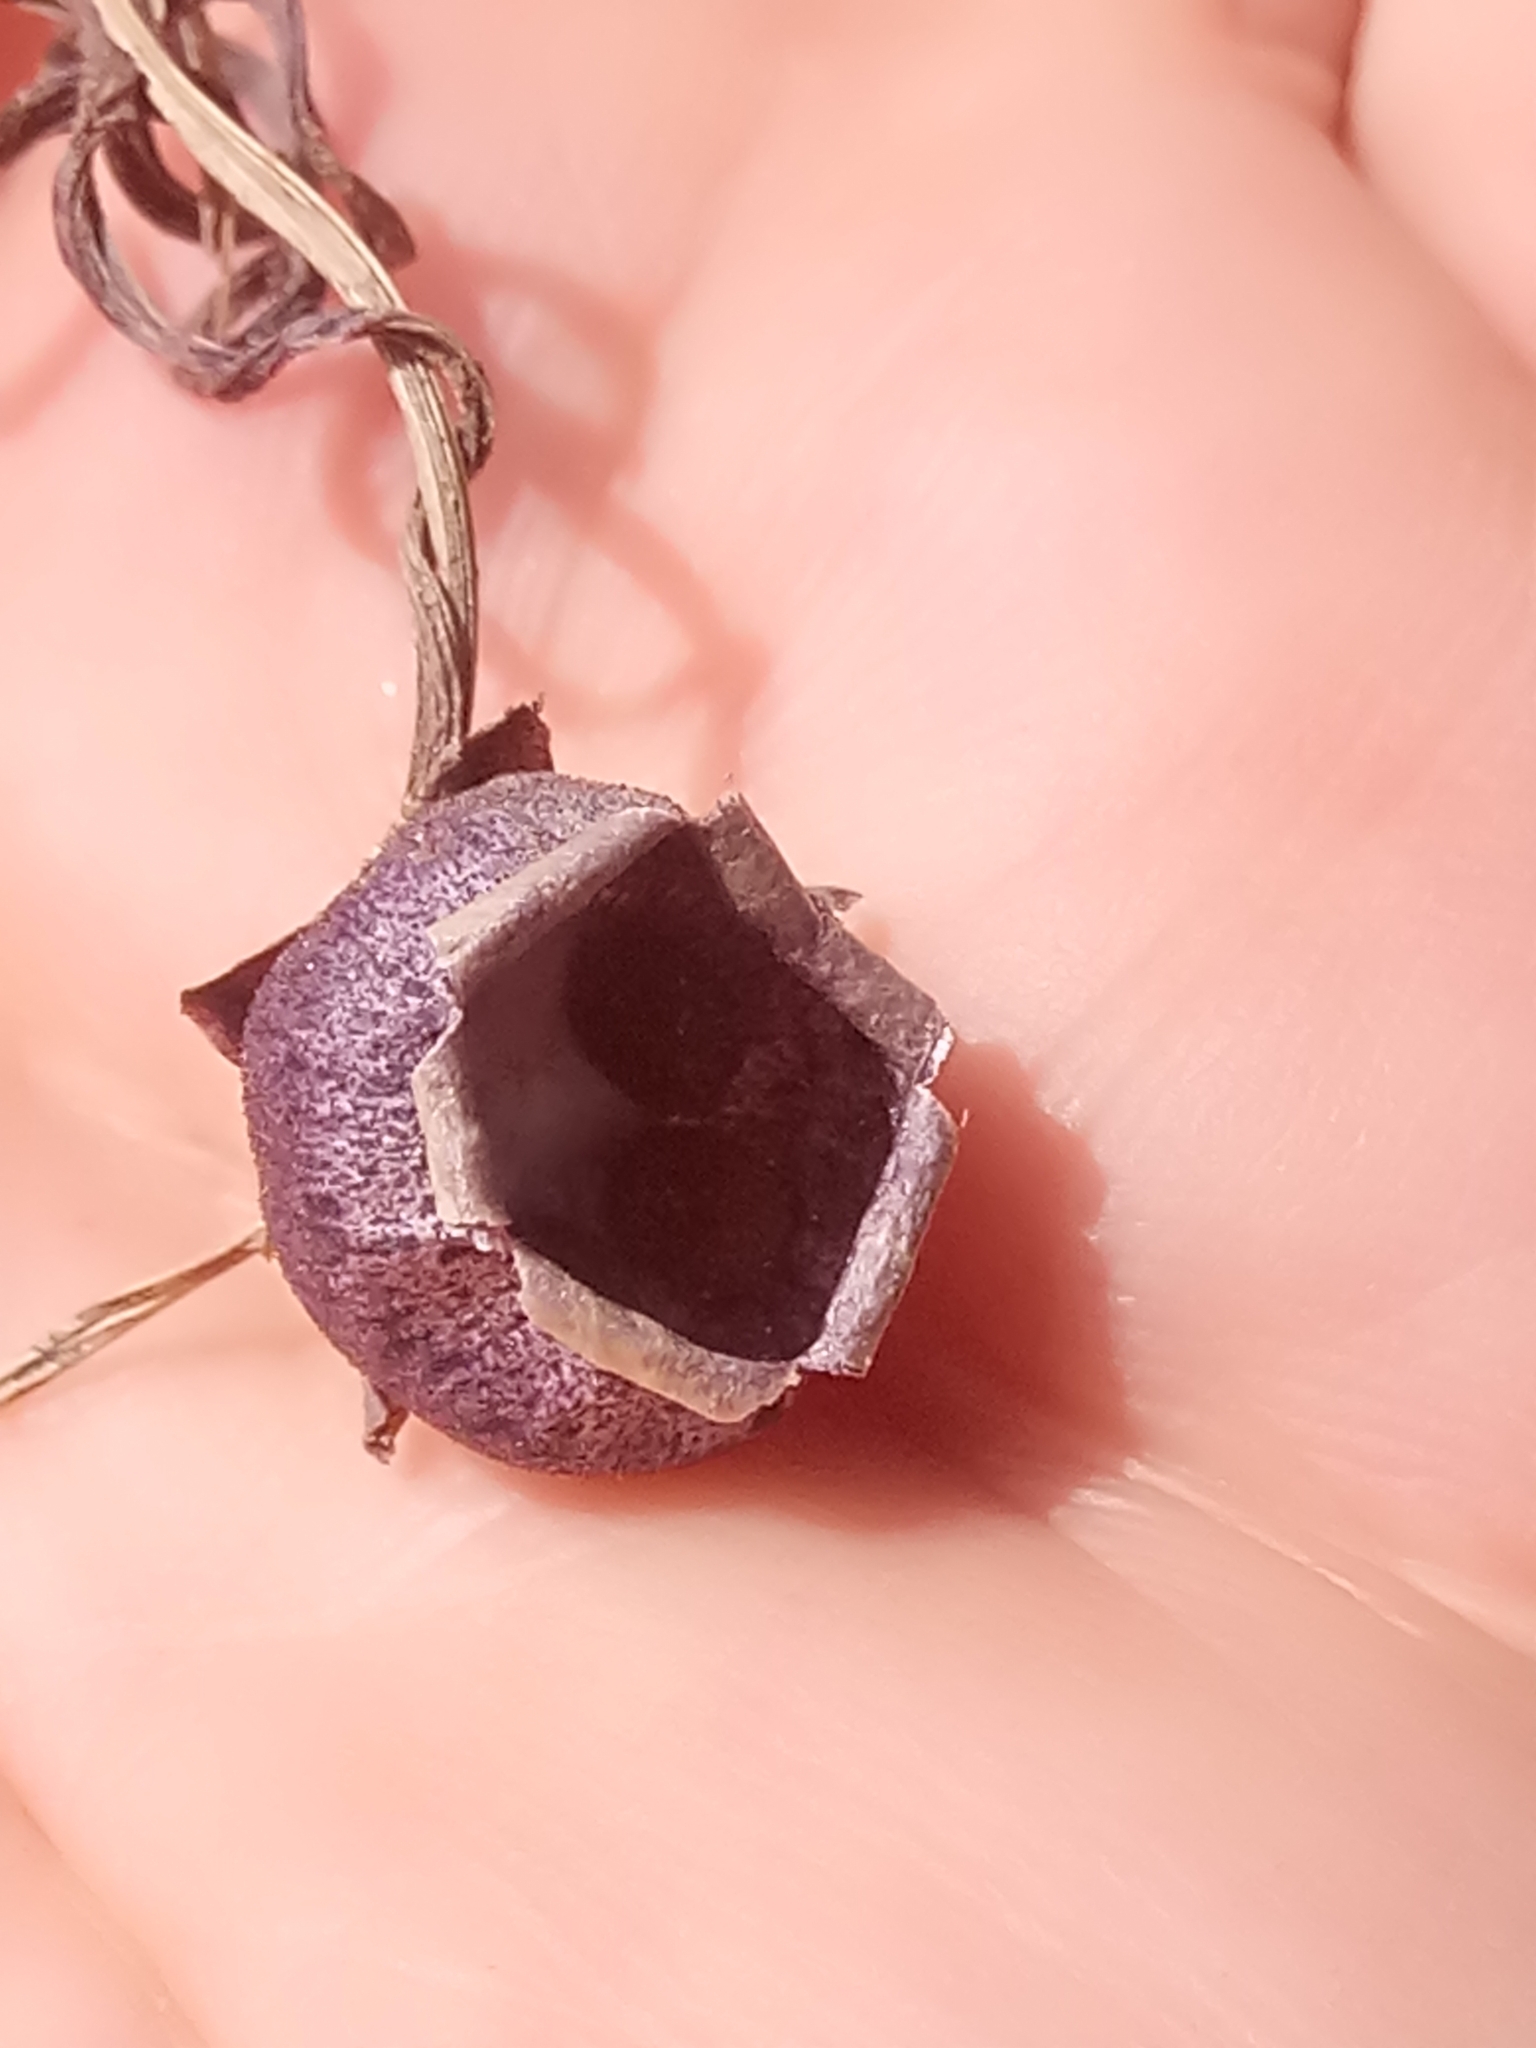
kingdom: Plantae
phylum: Tracheophyta
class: Magnoliopsida
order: Ericales
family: Primulaceae
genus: Cyclamen
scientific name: Cyclamen africanum
